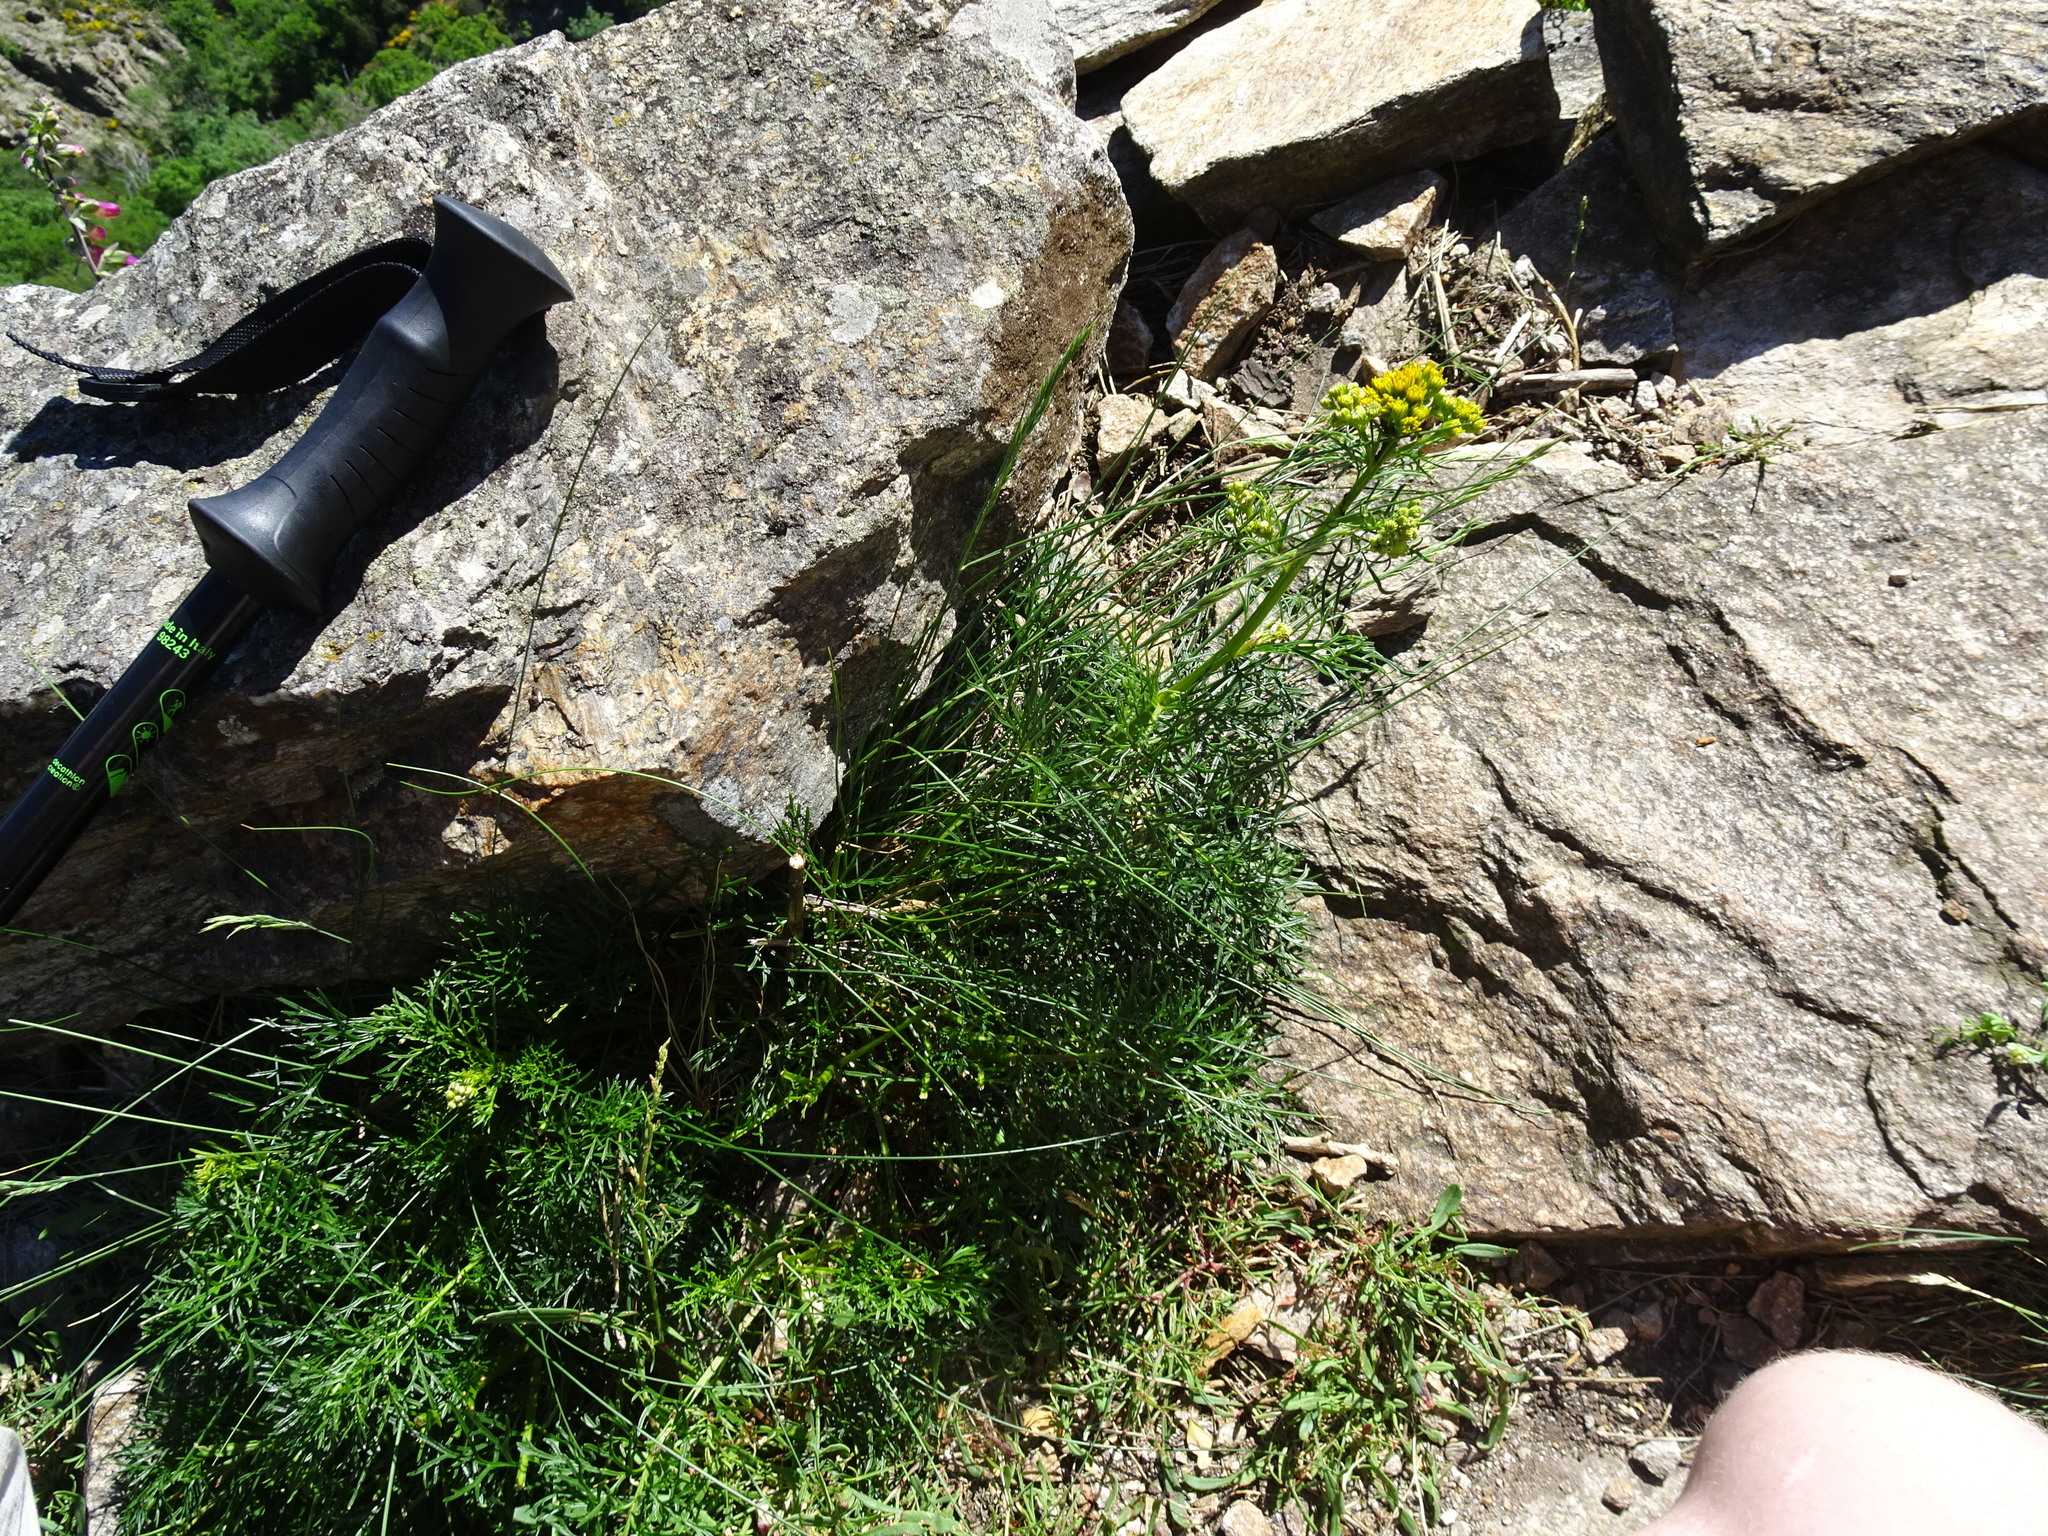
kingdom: Plantae
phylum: Tracheophyta
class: Magnoliopsida
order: Asterales
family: Asteraceae
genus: Jacobaea
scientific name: Jacobaea adonidifolia
